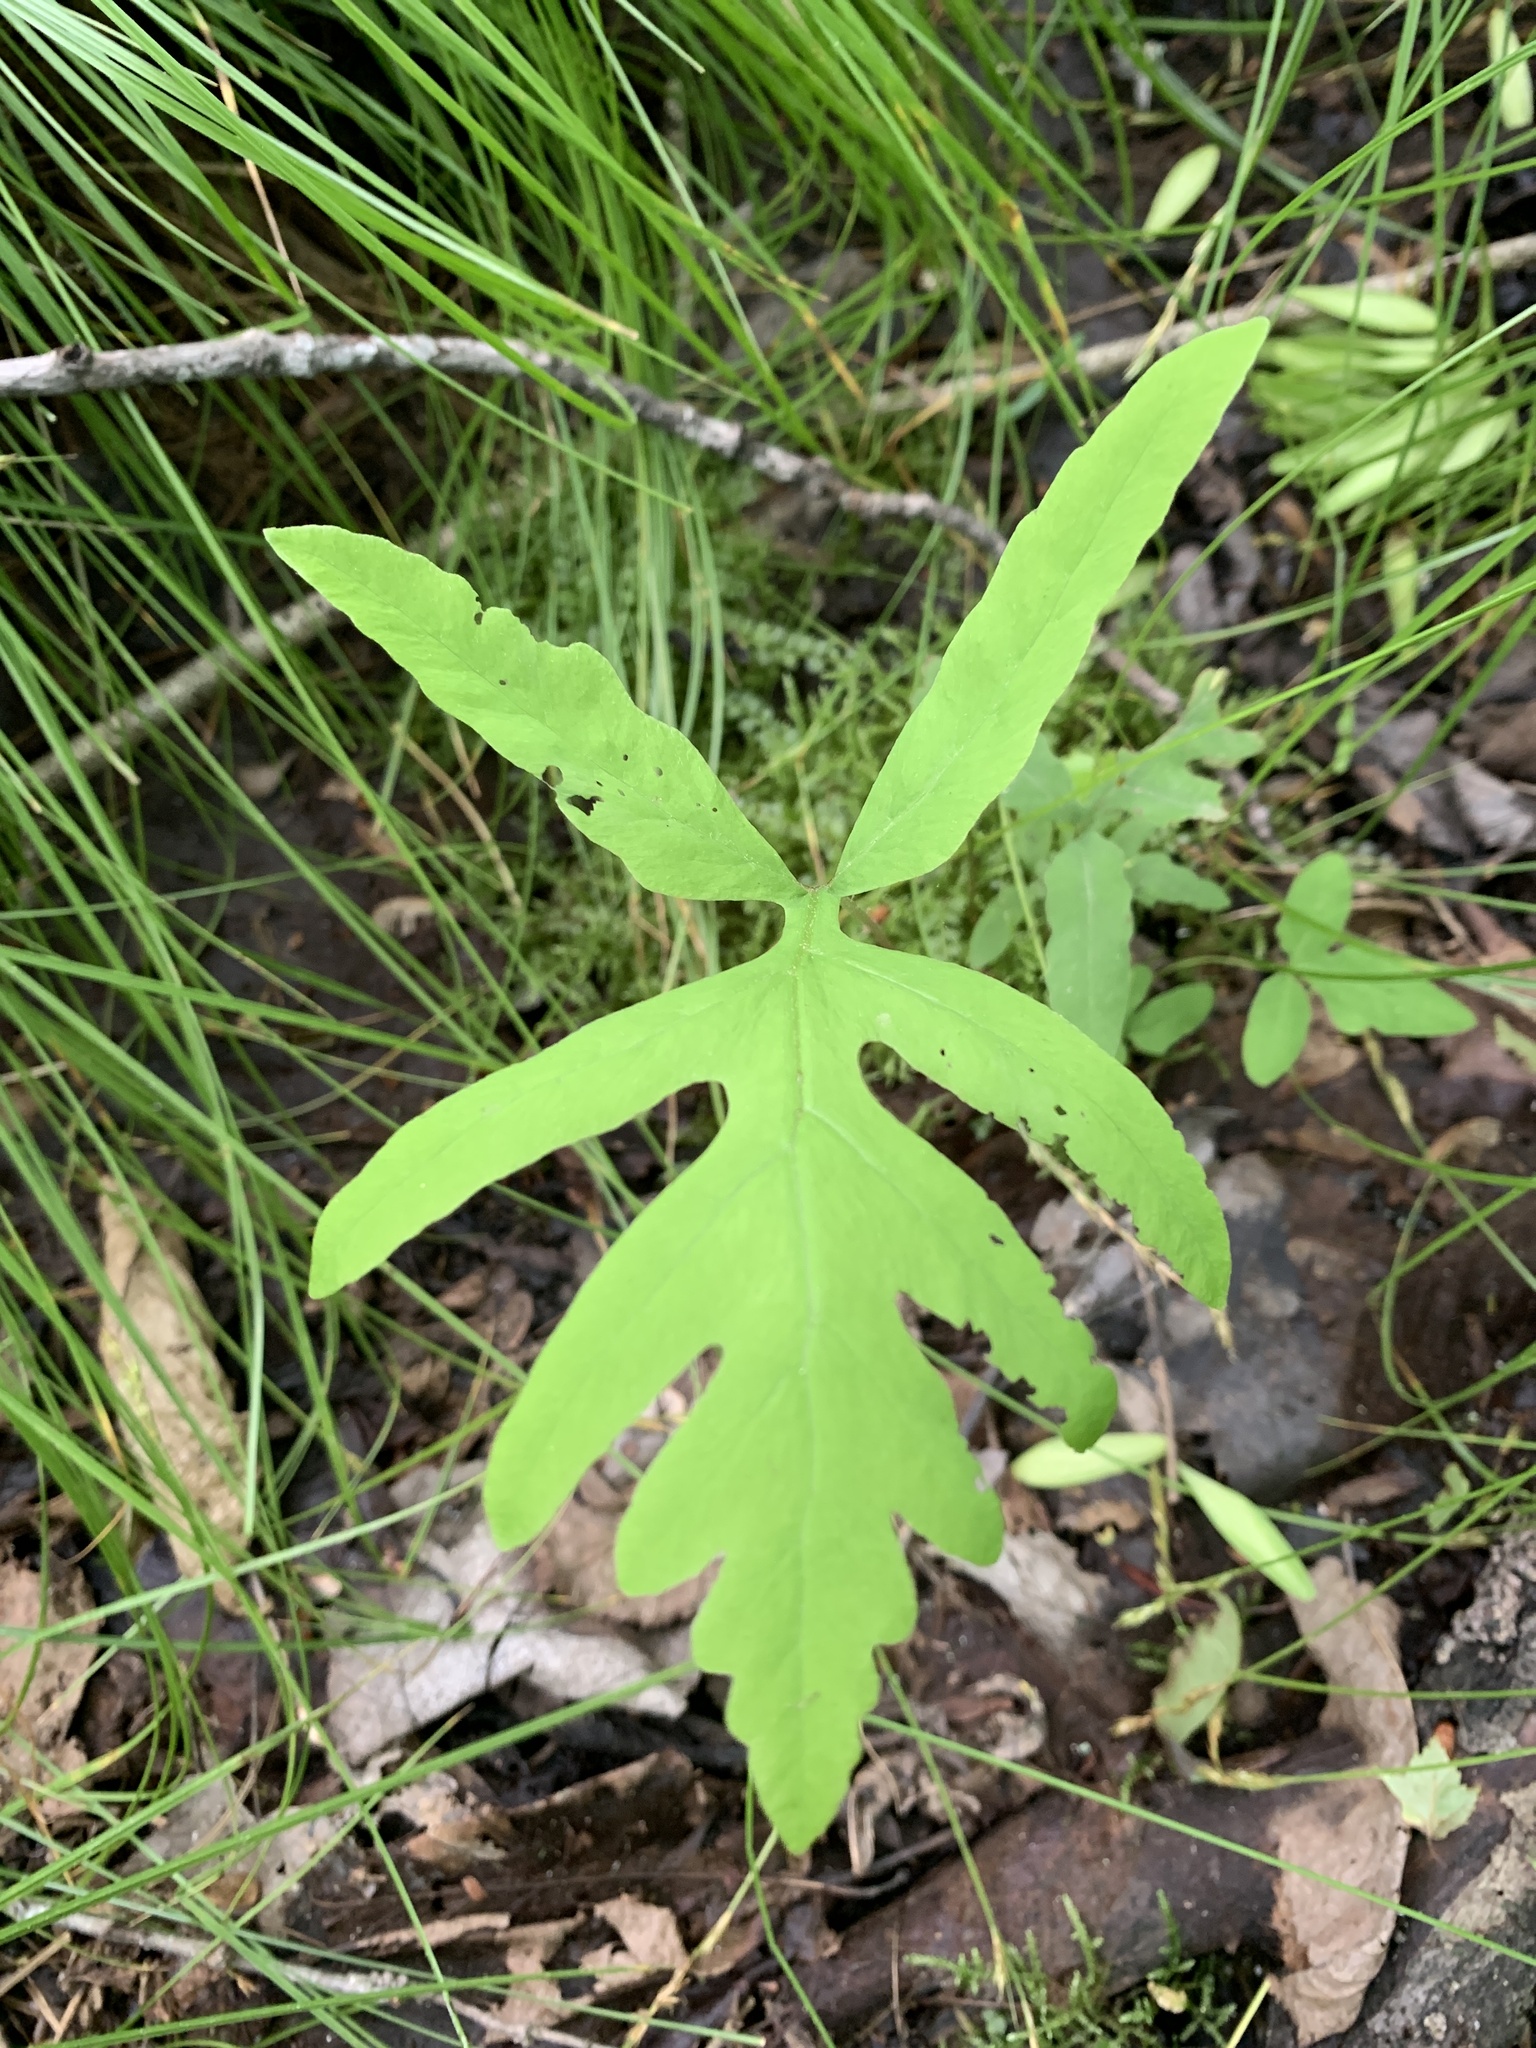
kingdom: Plantae
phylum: Tracheophyta
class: Polypodiopsida
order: Polypodiales
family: Onocleaceae
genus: Onoclea
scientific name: Onoclea sensibilis
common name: Sensitive fern
